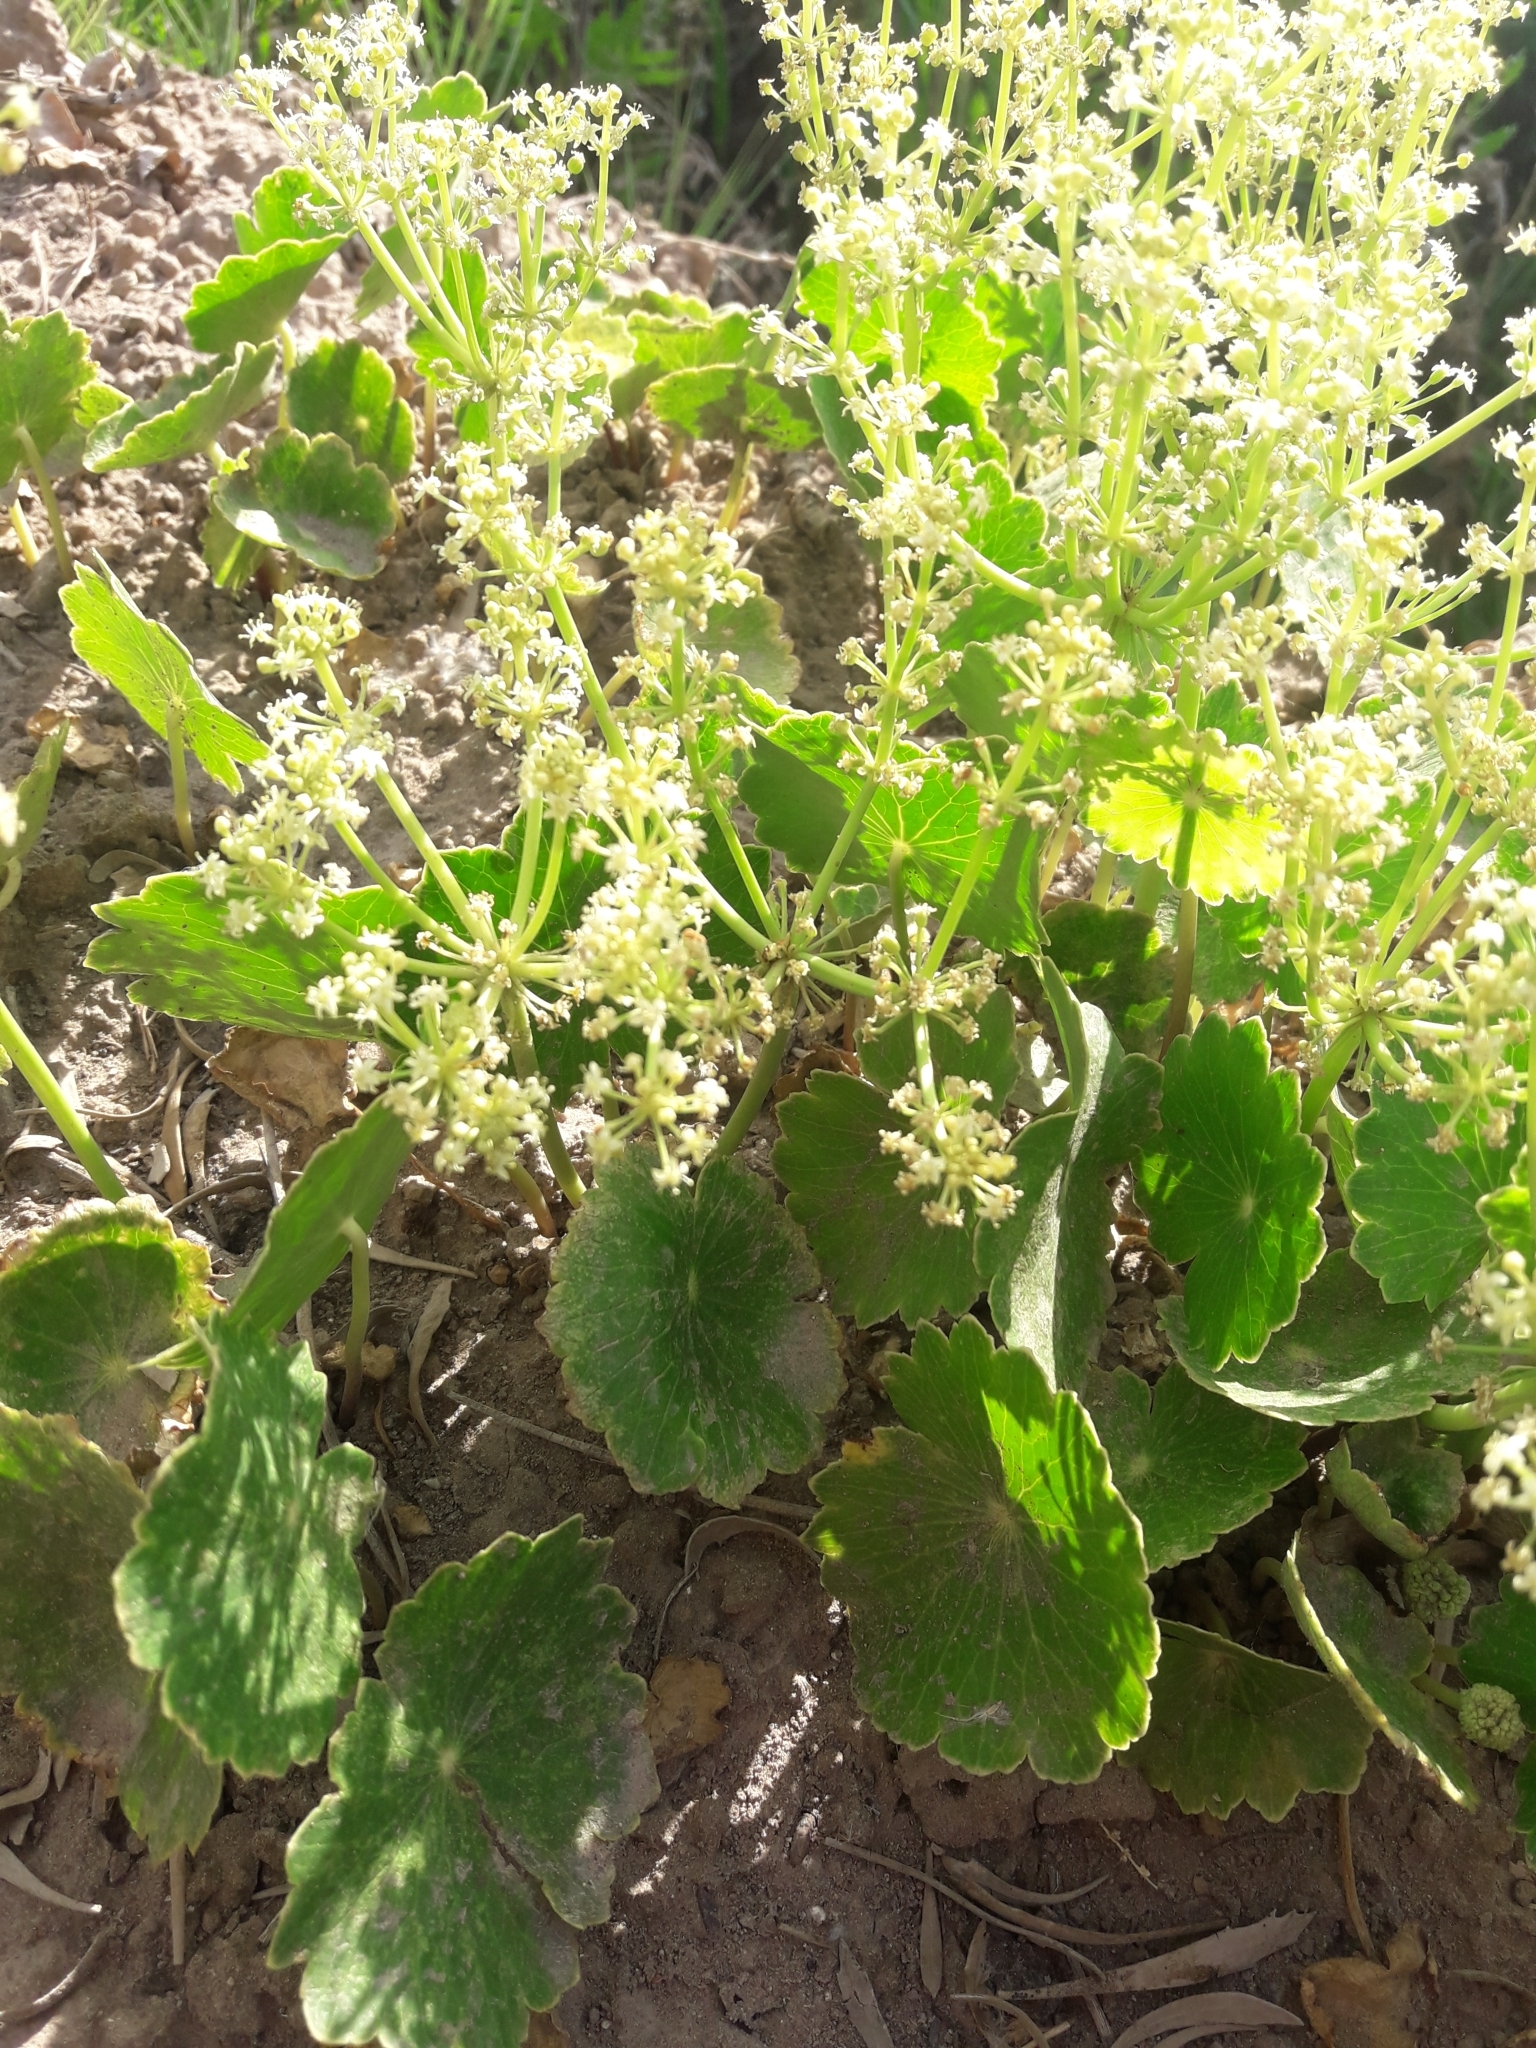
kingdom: Plantae
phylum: Tracheophyta
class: Magnoliopsida
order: Apiales
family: Araliaceae
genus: Hydrocotyle
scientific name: Hydrocotyle bonariensis
